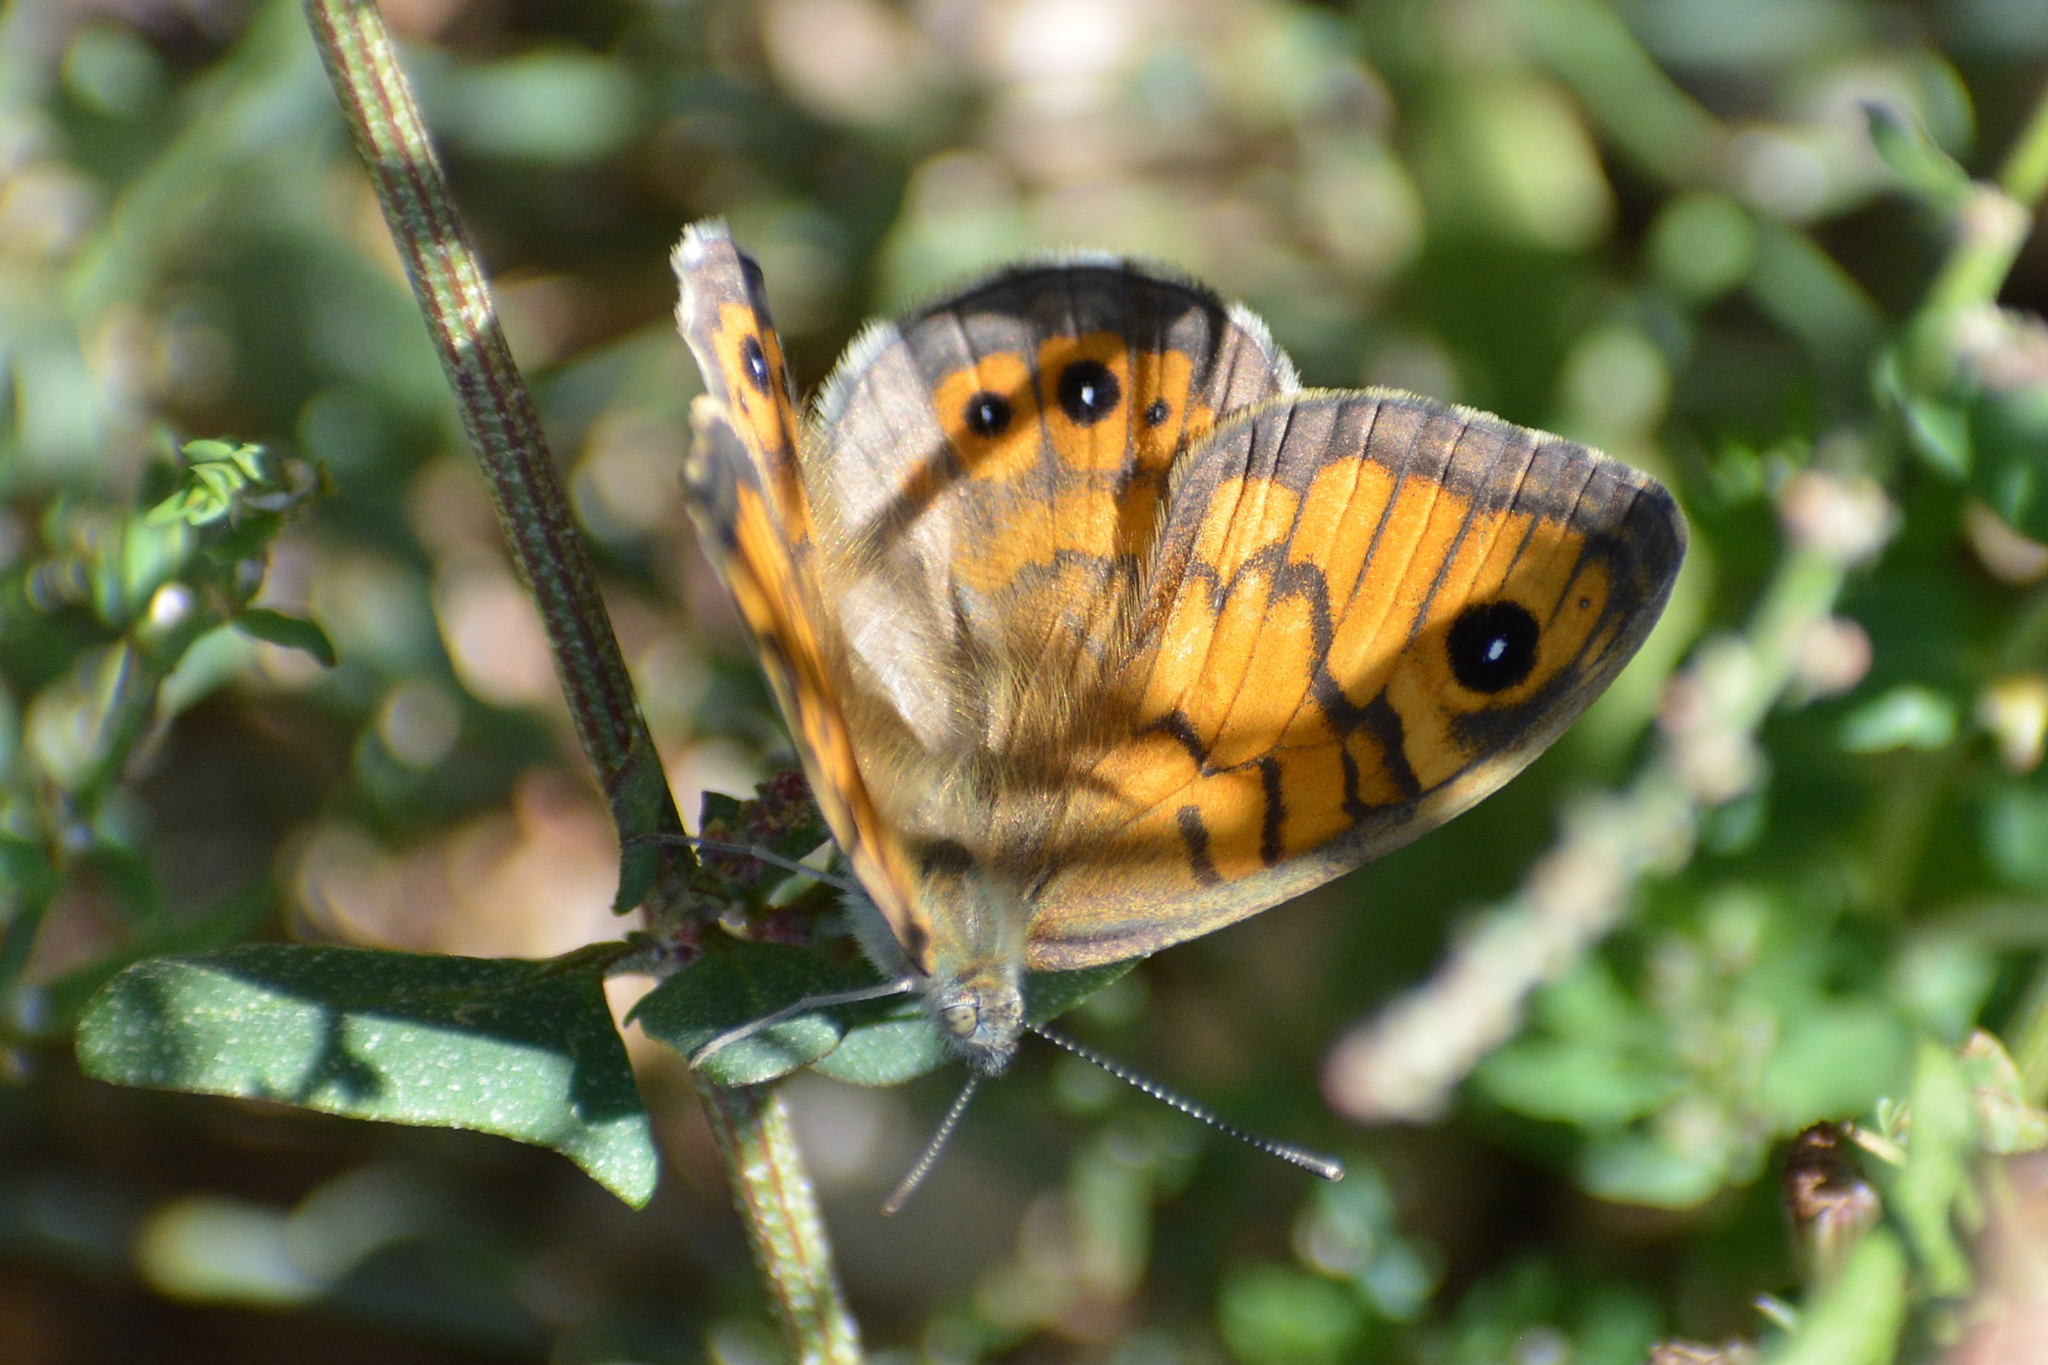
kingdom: Animalia
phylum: Arthropoda
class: Insecta
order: Lepidoptera
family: Nymphalidae
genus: Pararge
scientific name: Pararge Lasiommata megera
